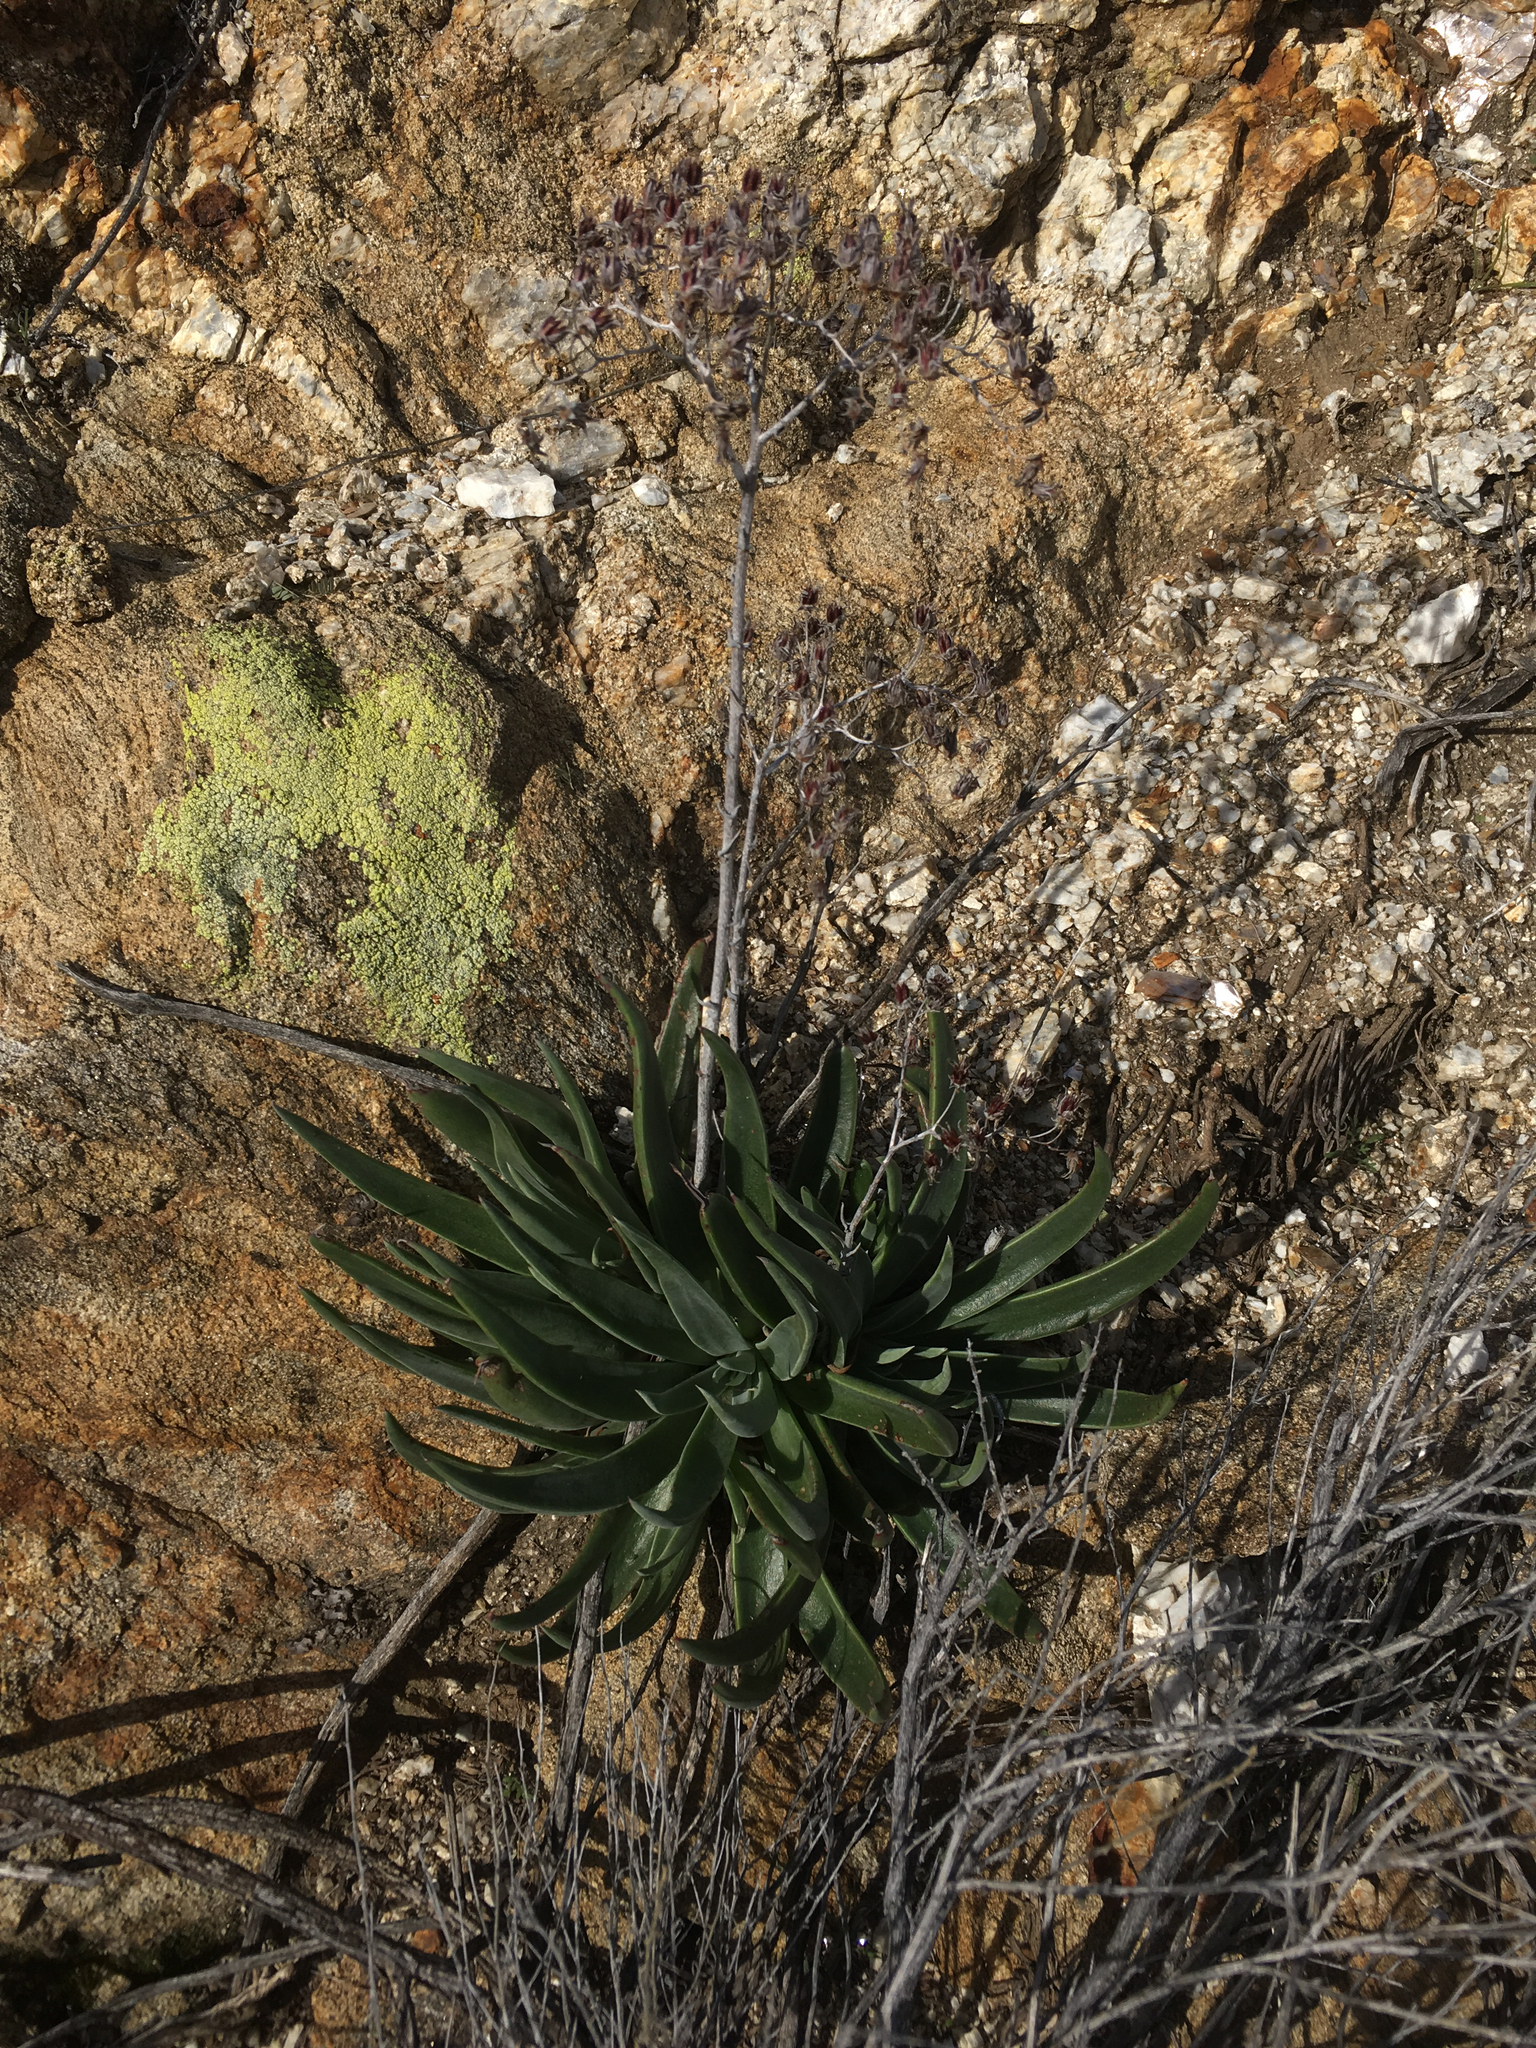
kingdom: Plantae
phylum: Tracheophyta
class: Magnoliopsida
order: Saxifragales
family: Crassulaceae
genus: Dudleya
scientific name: Dudleya saxosa
